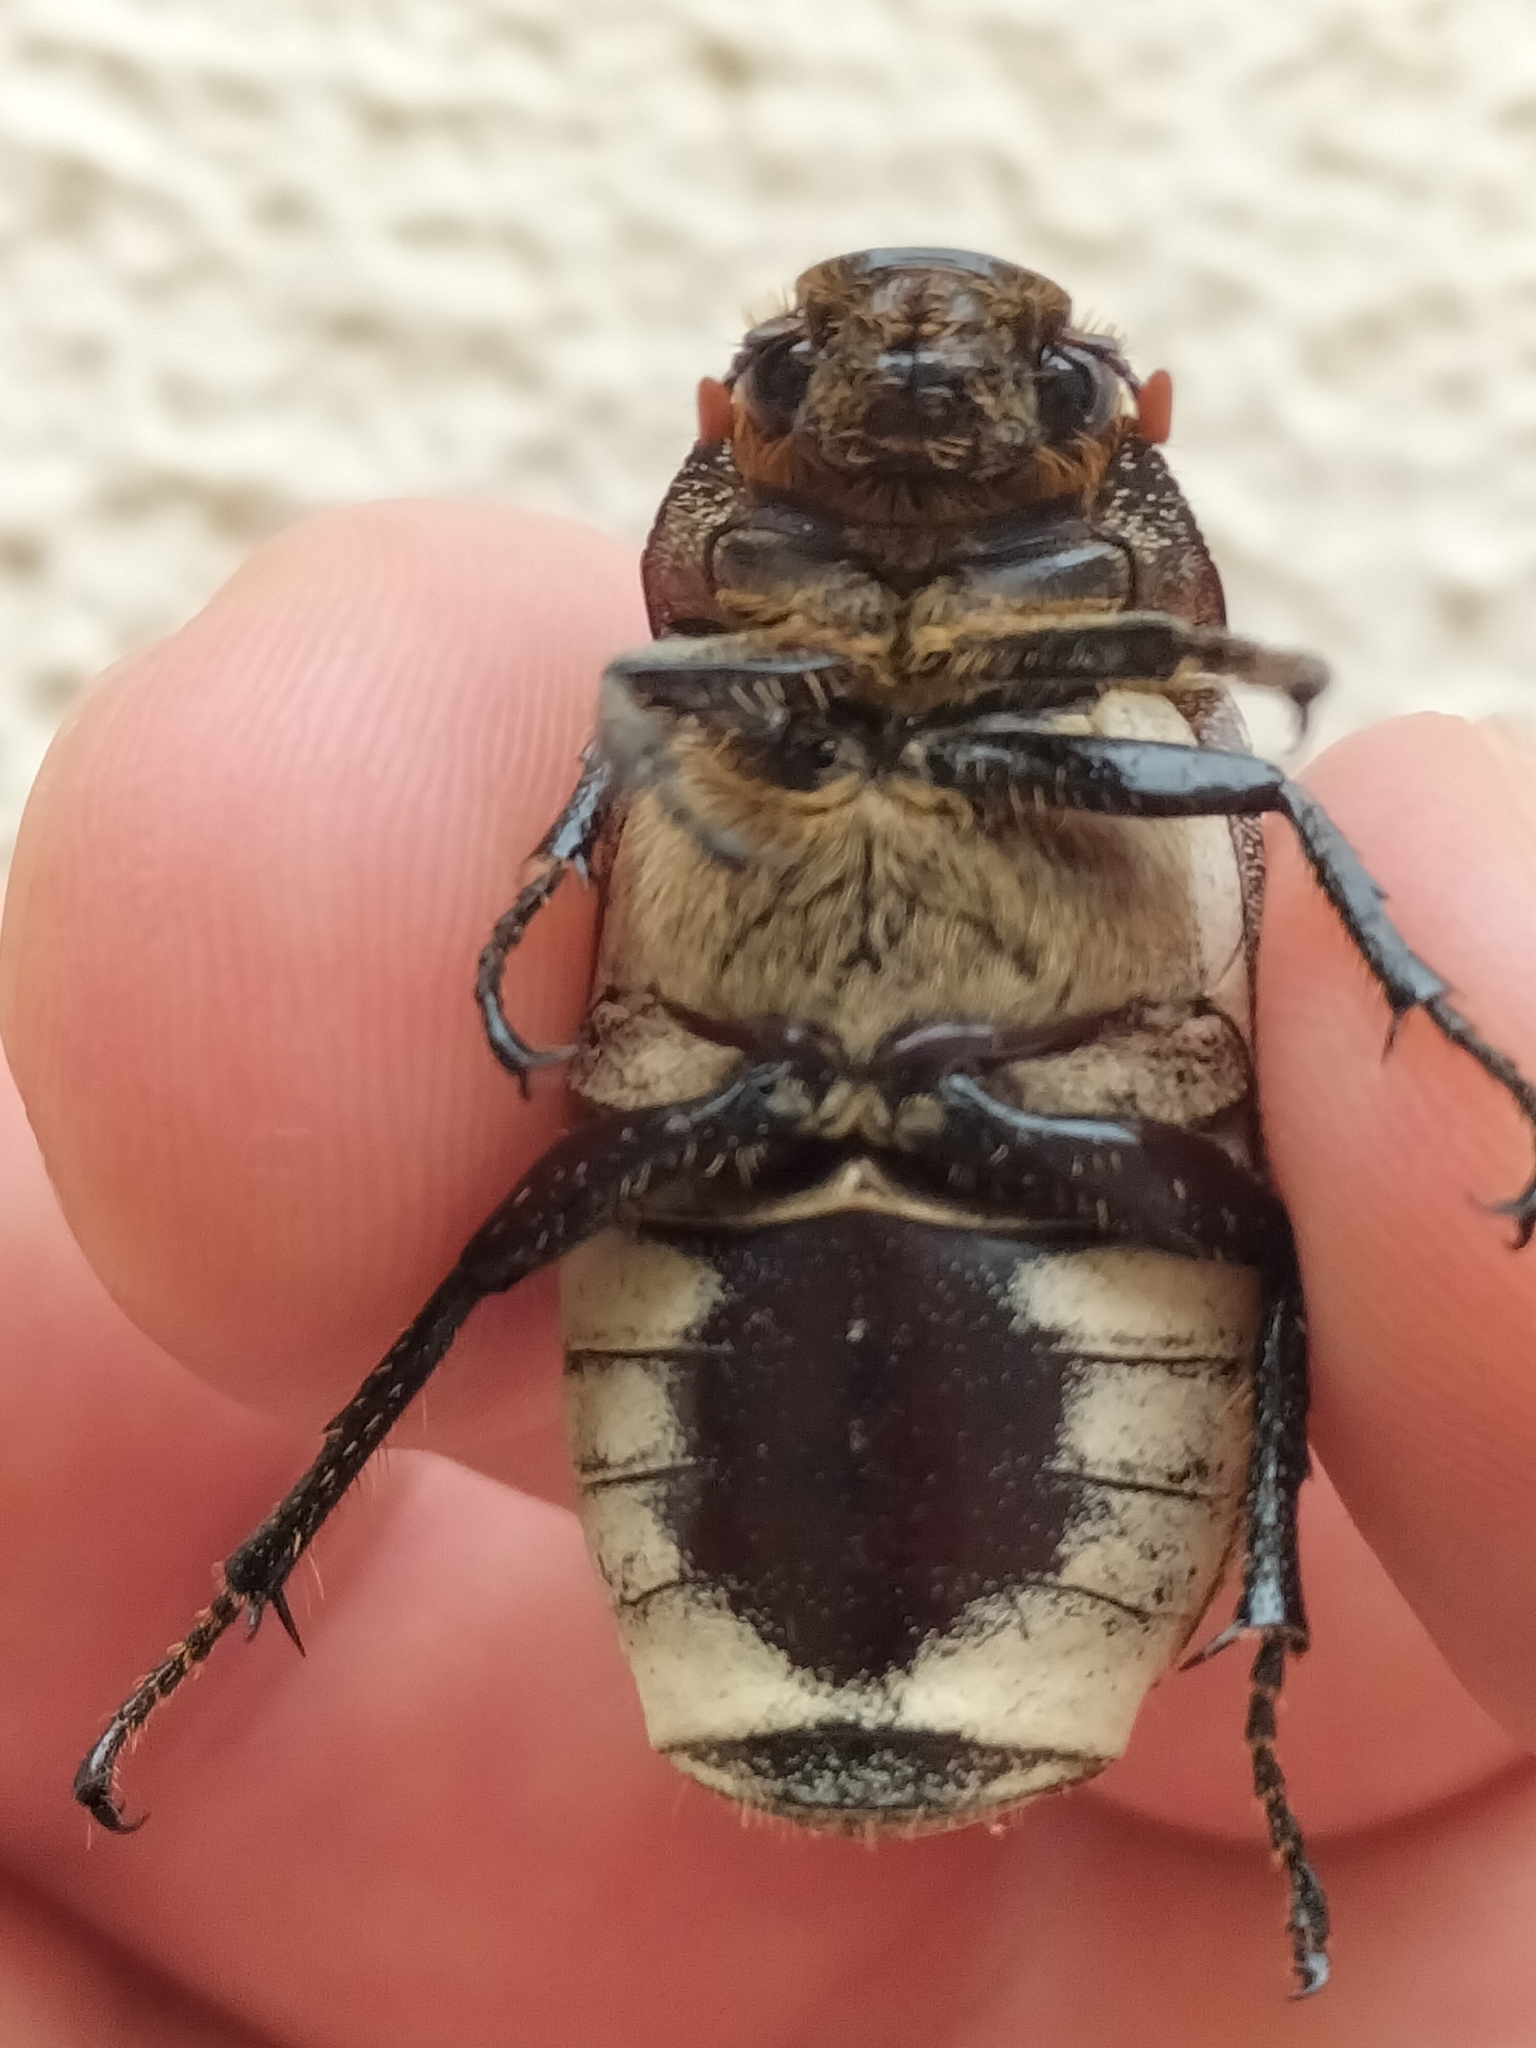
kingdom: Animalia
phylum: Arthropoda
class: Insecta
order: Coleoptera
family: Scarabaeidae
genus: Dermolepida
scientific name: Dermolepida albohirtum
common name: Greyback cane beetle
